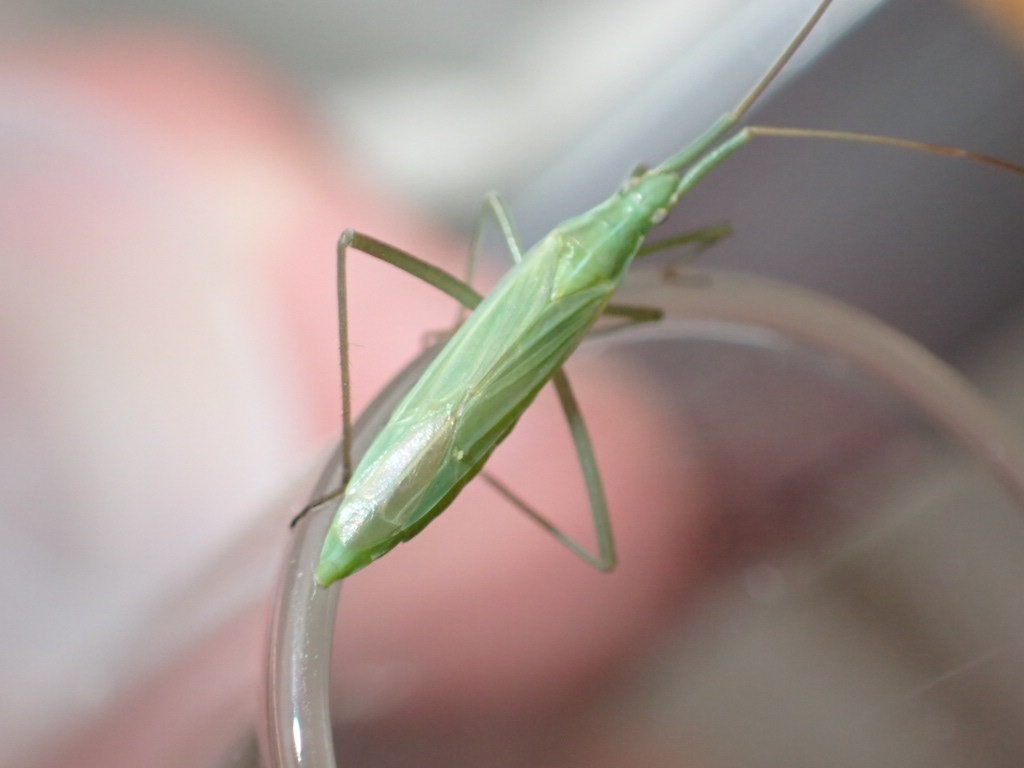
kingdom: Animalia
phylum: Arthropoda
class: Insecta
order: Hemiptera
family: Miridae
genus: Megaloceroea
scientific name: Megaloceroea recticornis
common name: Plant bug
